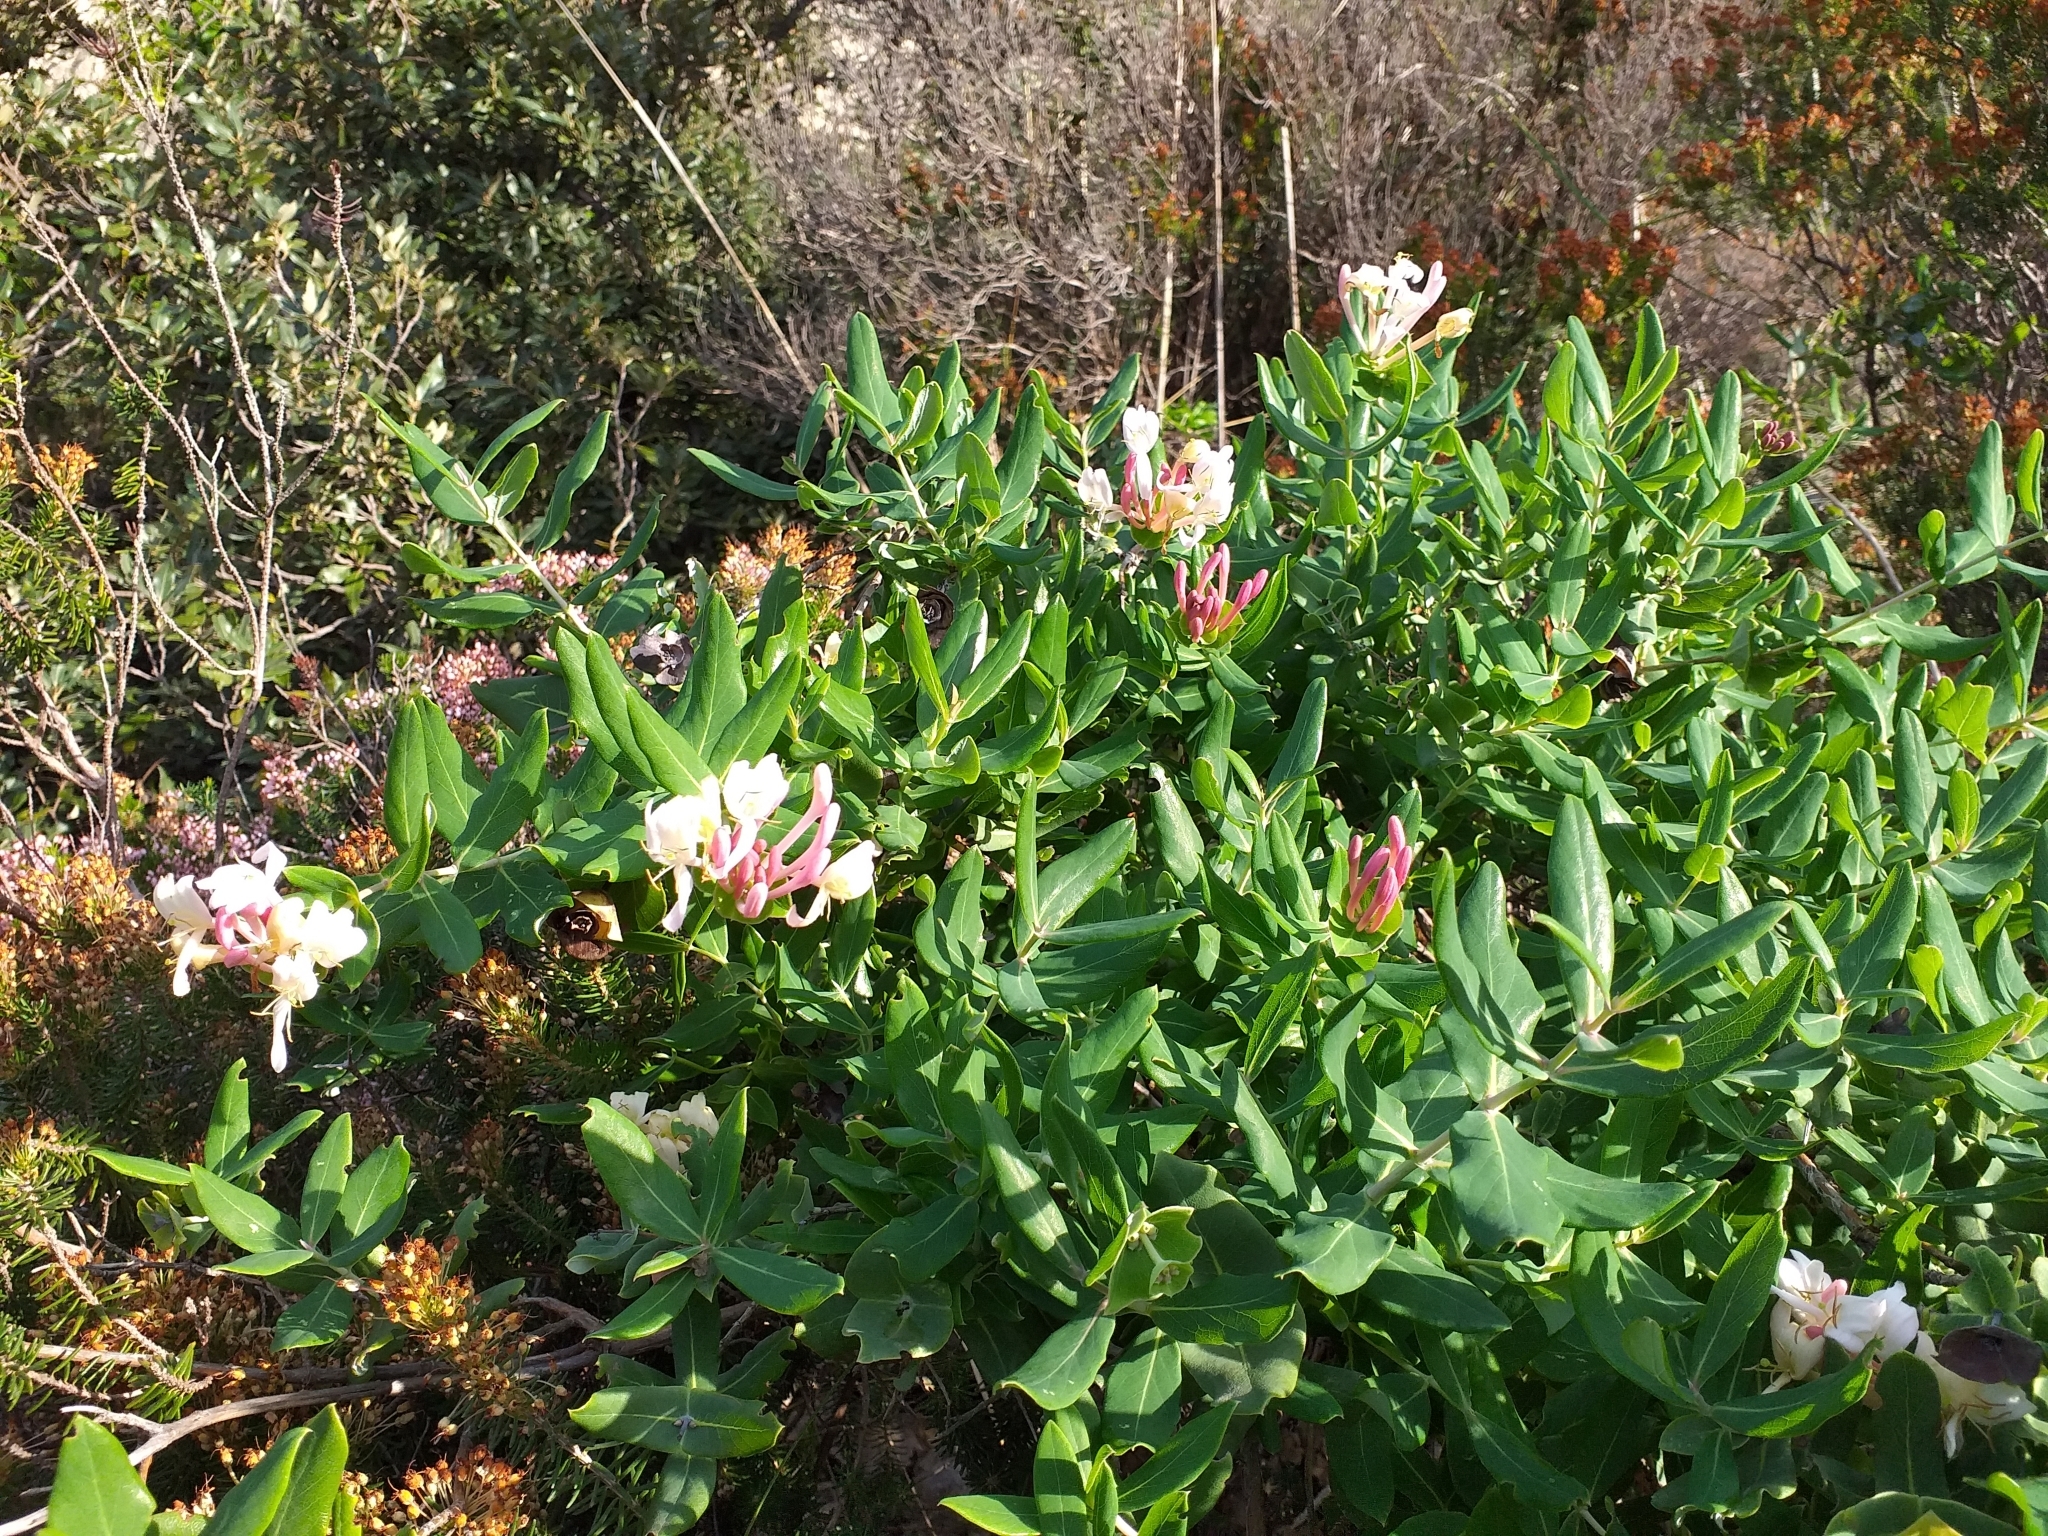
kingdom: Plantae
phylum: Tracheophyta
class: Magnoliopsida
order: Dipsacales
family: Caprifoliaceae
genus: Lonicera
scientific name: Lonicera implexa
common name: Minorca honeysuckle
